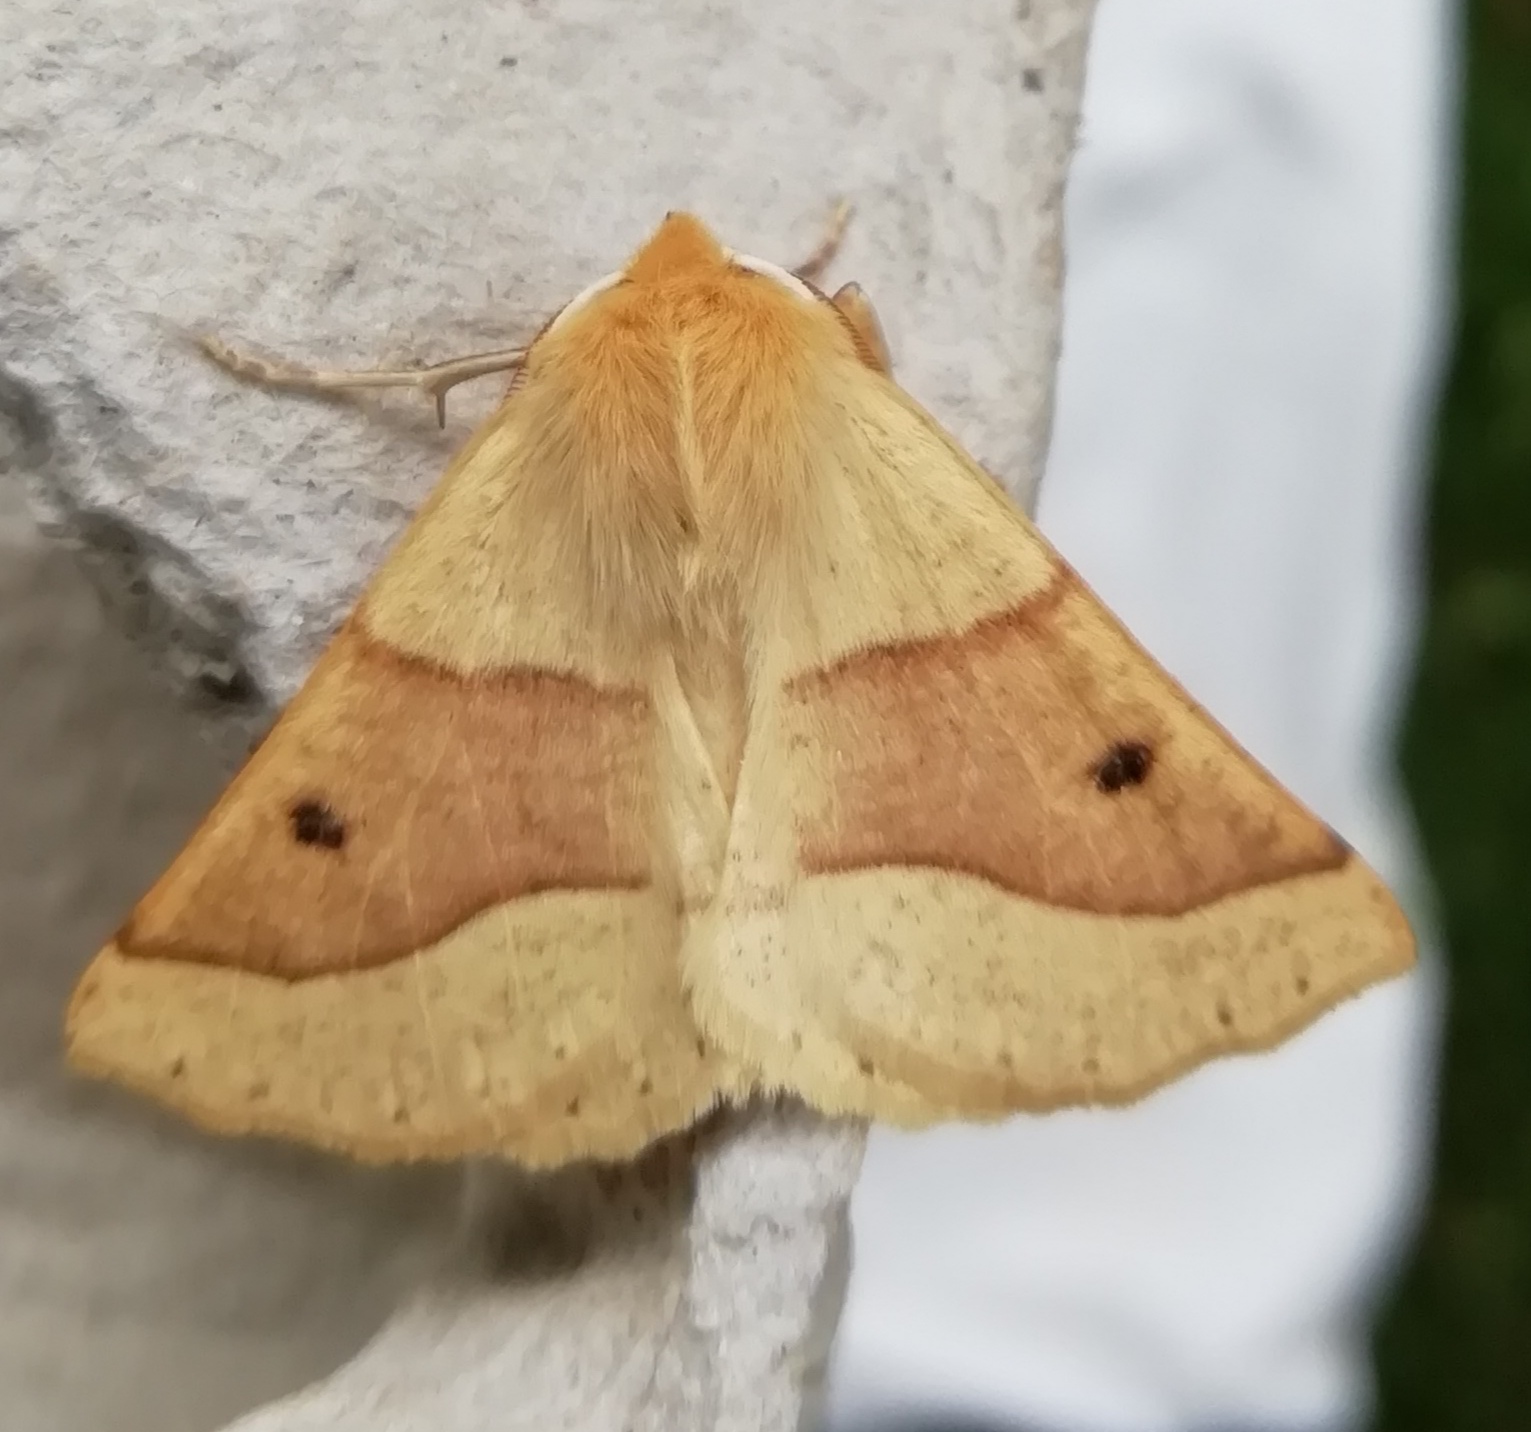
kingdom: Animalia
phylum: Arthropoda
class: Insecta
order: Lepidoptera
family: Geometridae
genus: Crocallis
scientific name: Crocallis elinguaria
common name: Scalloped oak
